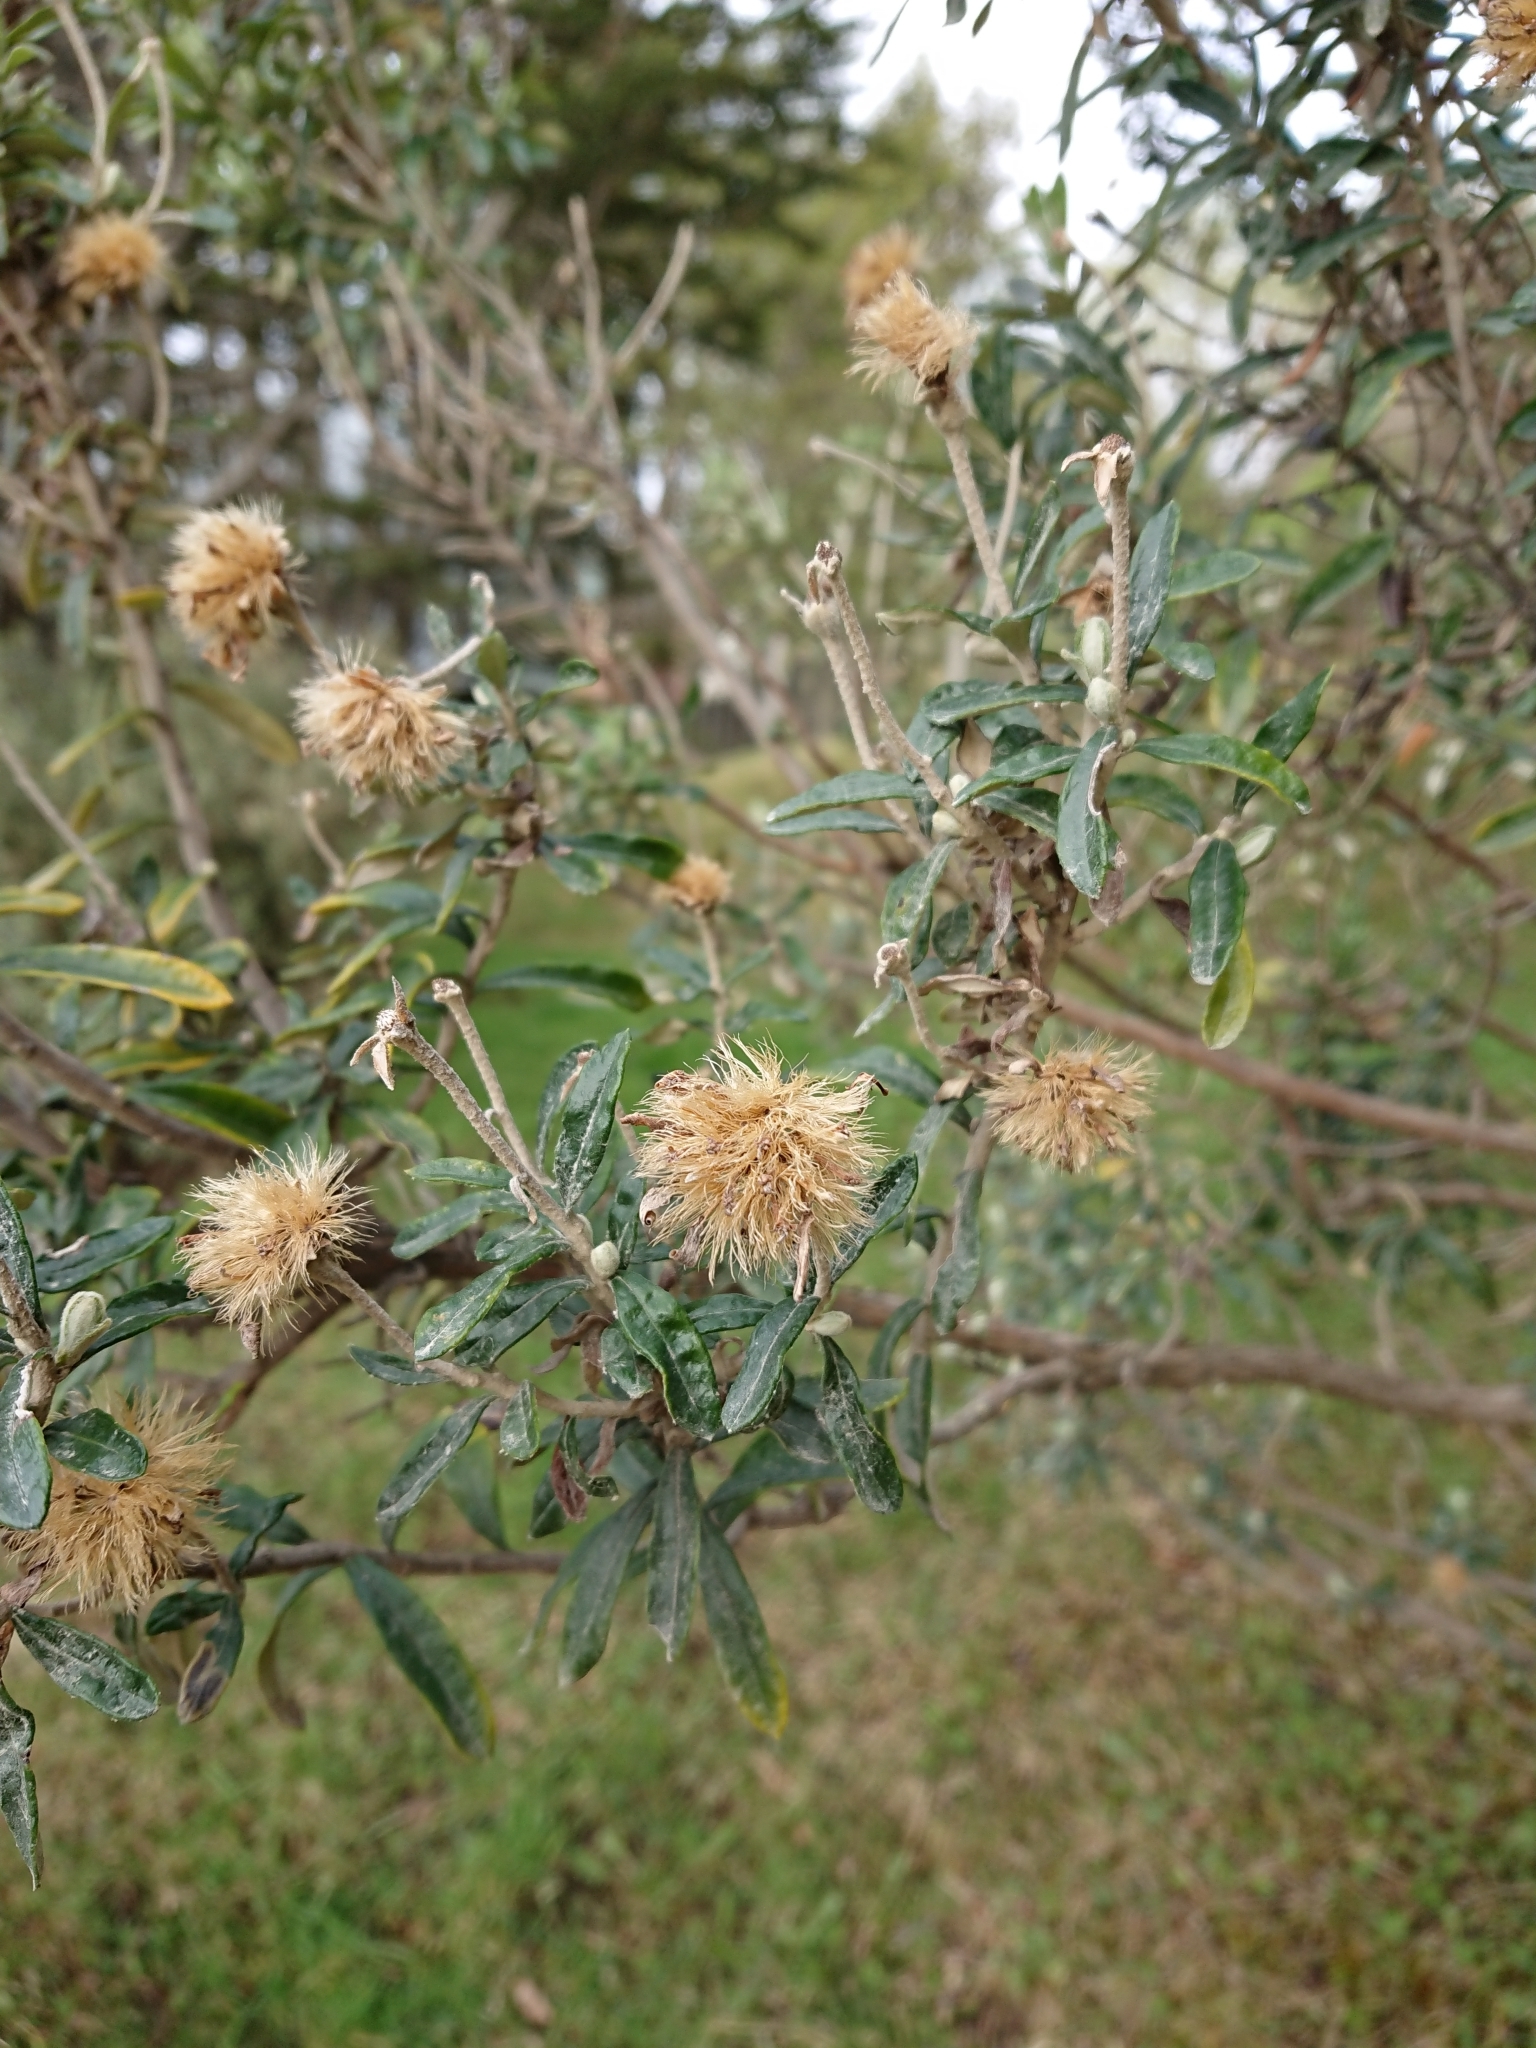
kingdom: Plantae
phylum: Tracheophyta
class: Magnoliopsida
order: Asterales
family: Asteraceae
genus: Chiliotrichum
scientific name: Chiliotrichum diffusum
